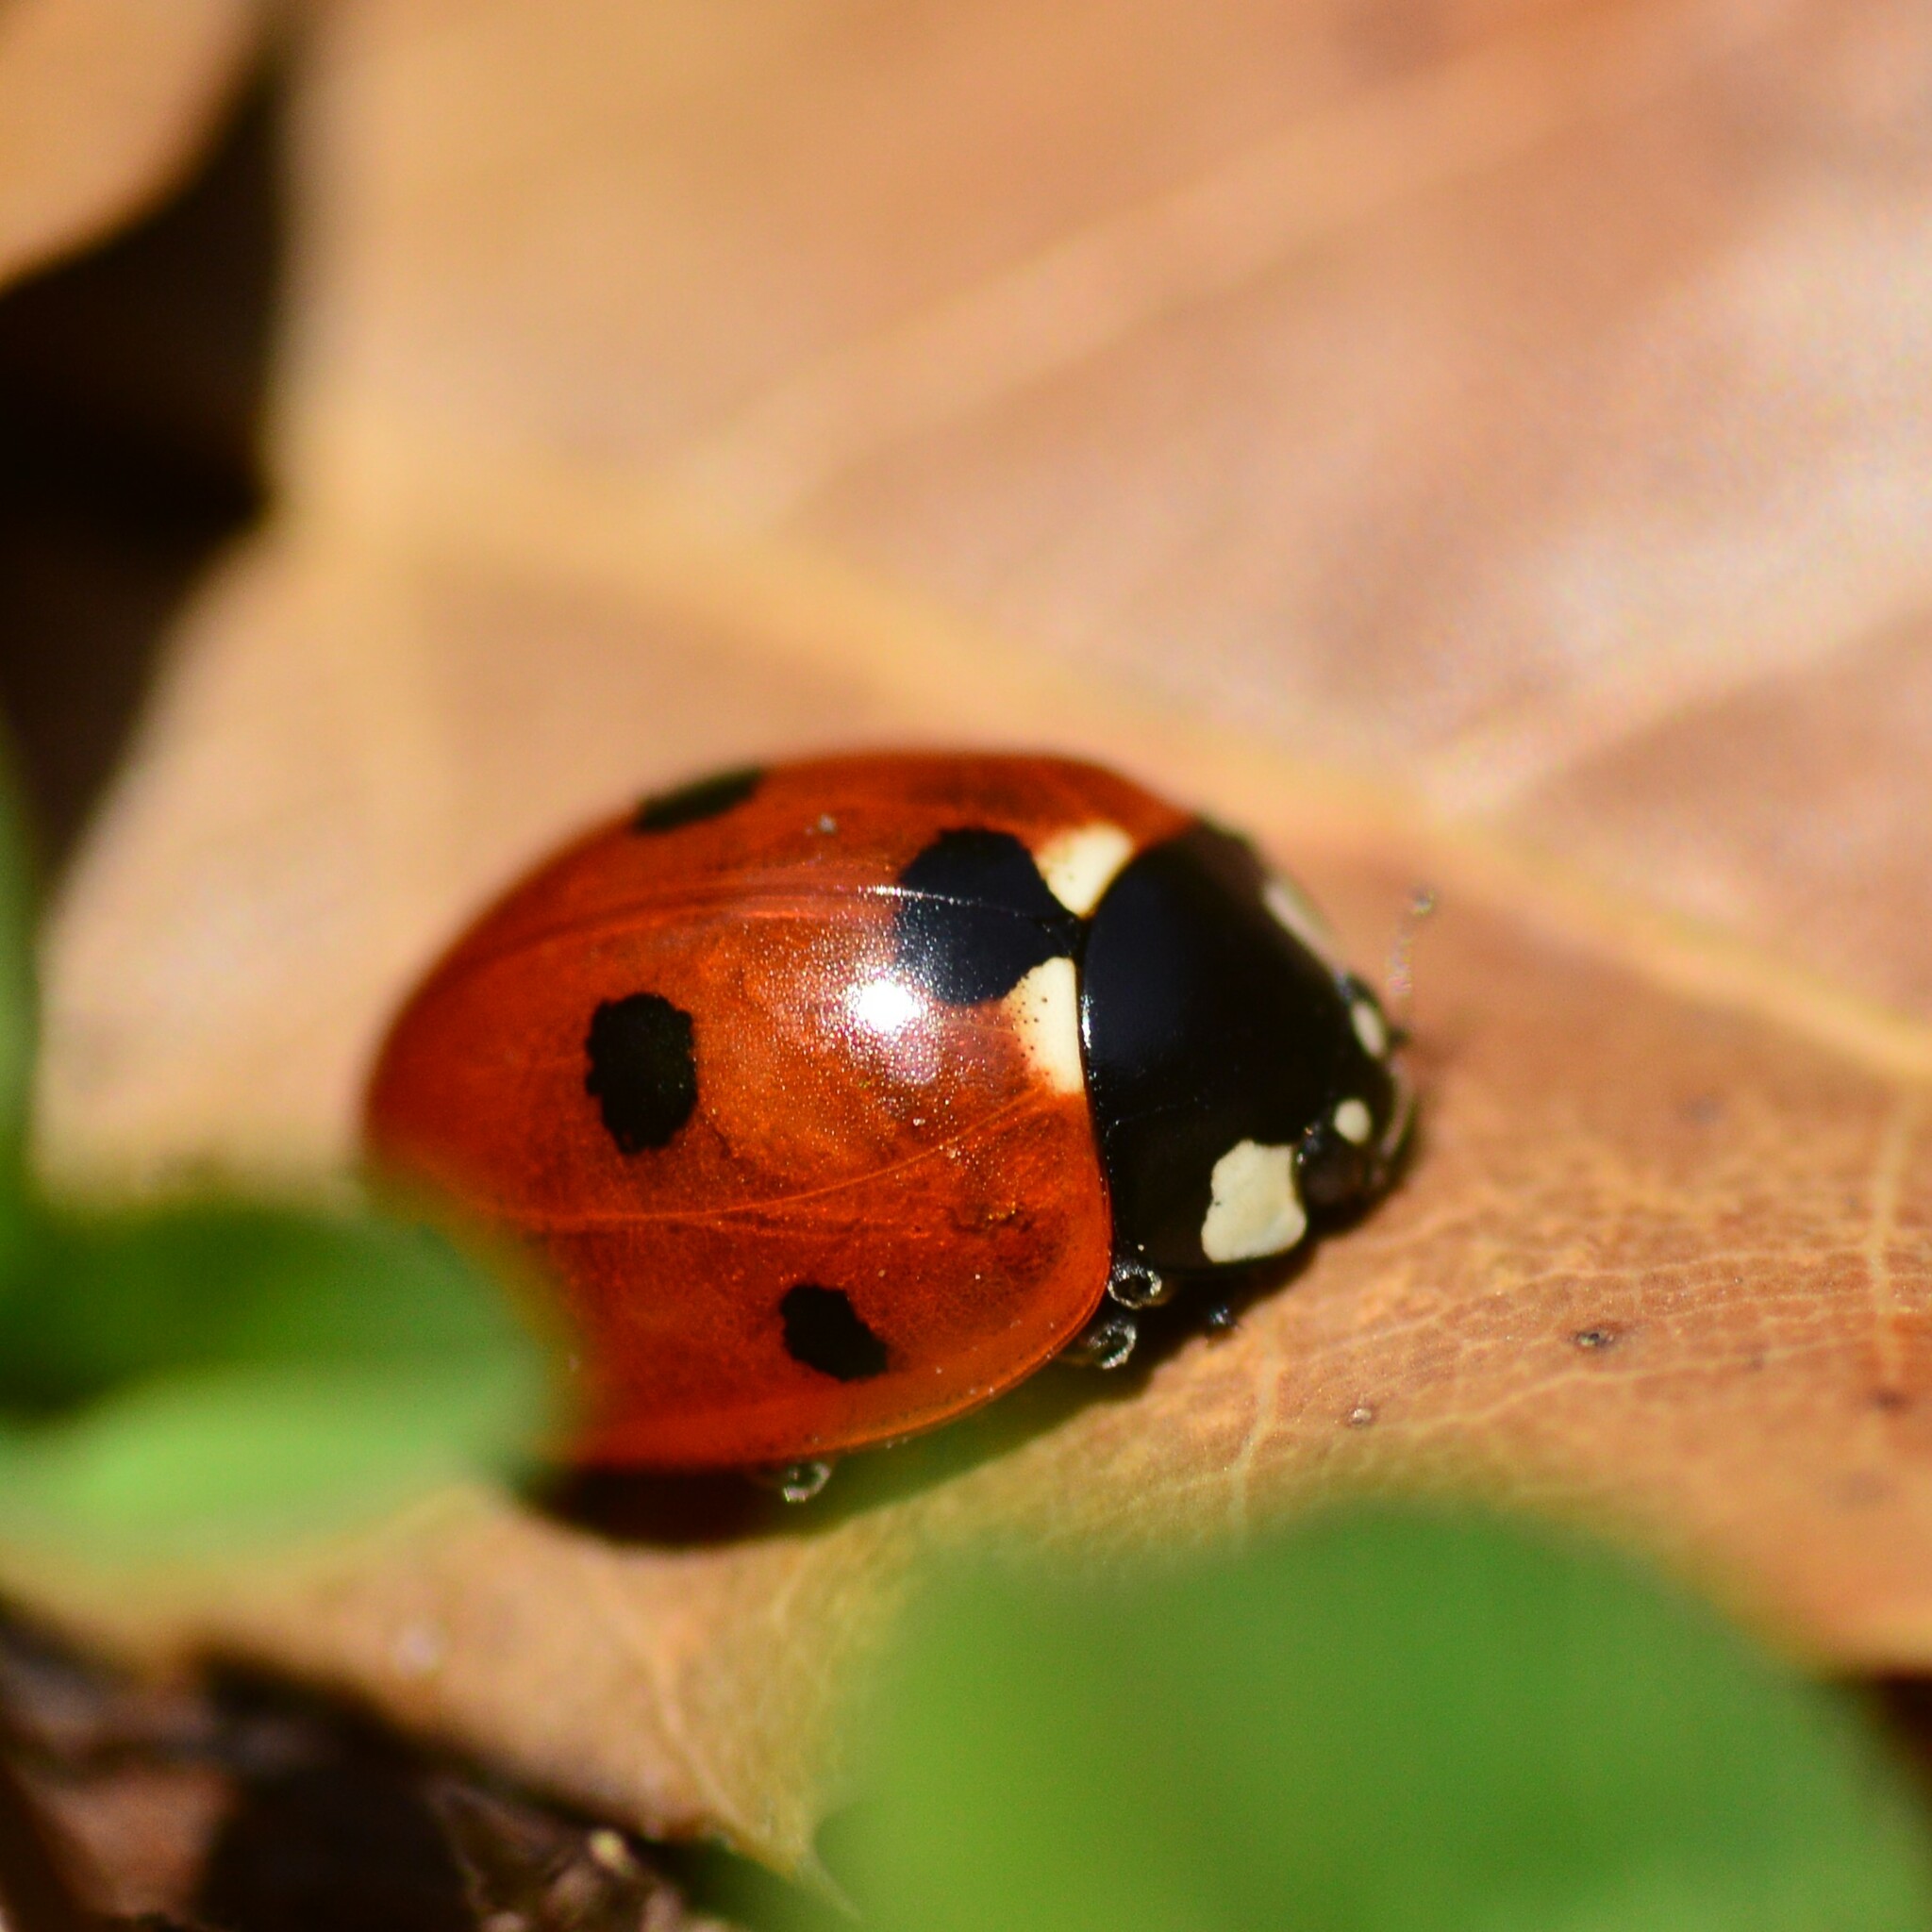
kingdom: Animalia
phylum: Arthropoda
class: Insecta
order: Coleoptera
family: Coccinellidae
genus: Coccinella
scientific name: Coccinella septempunctata
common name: Sevenspotted lady beetle
